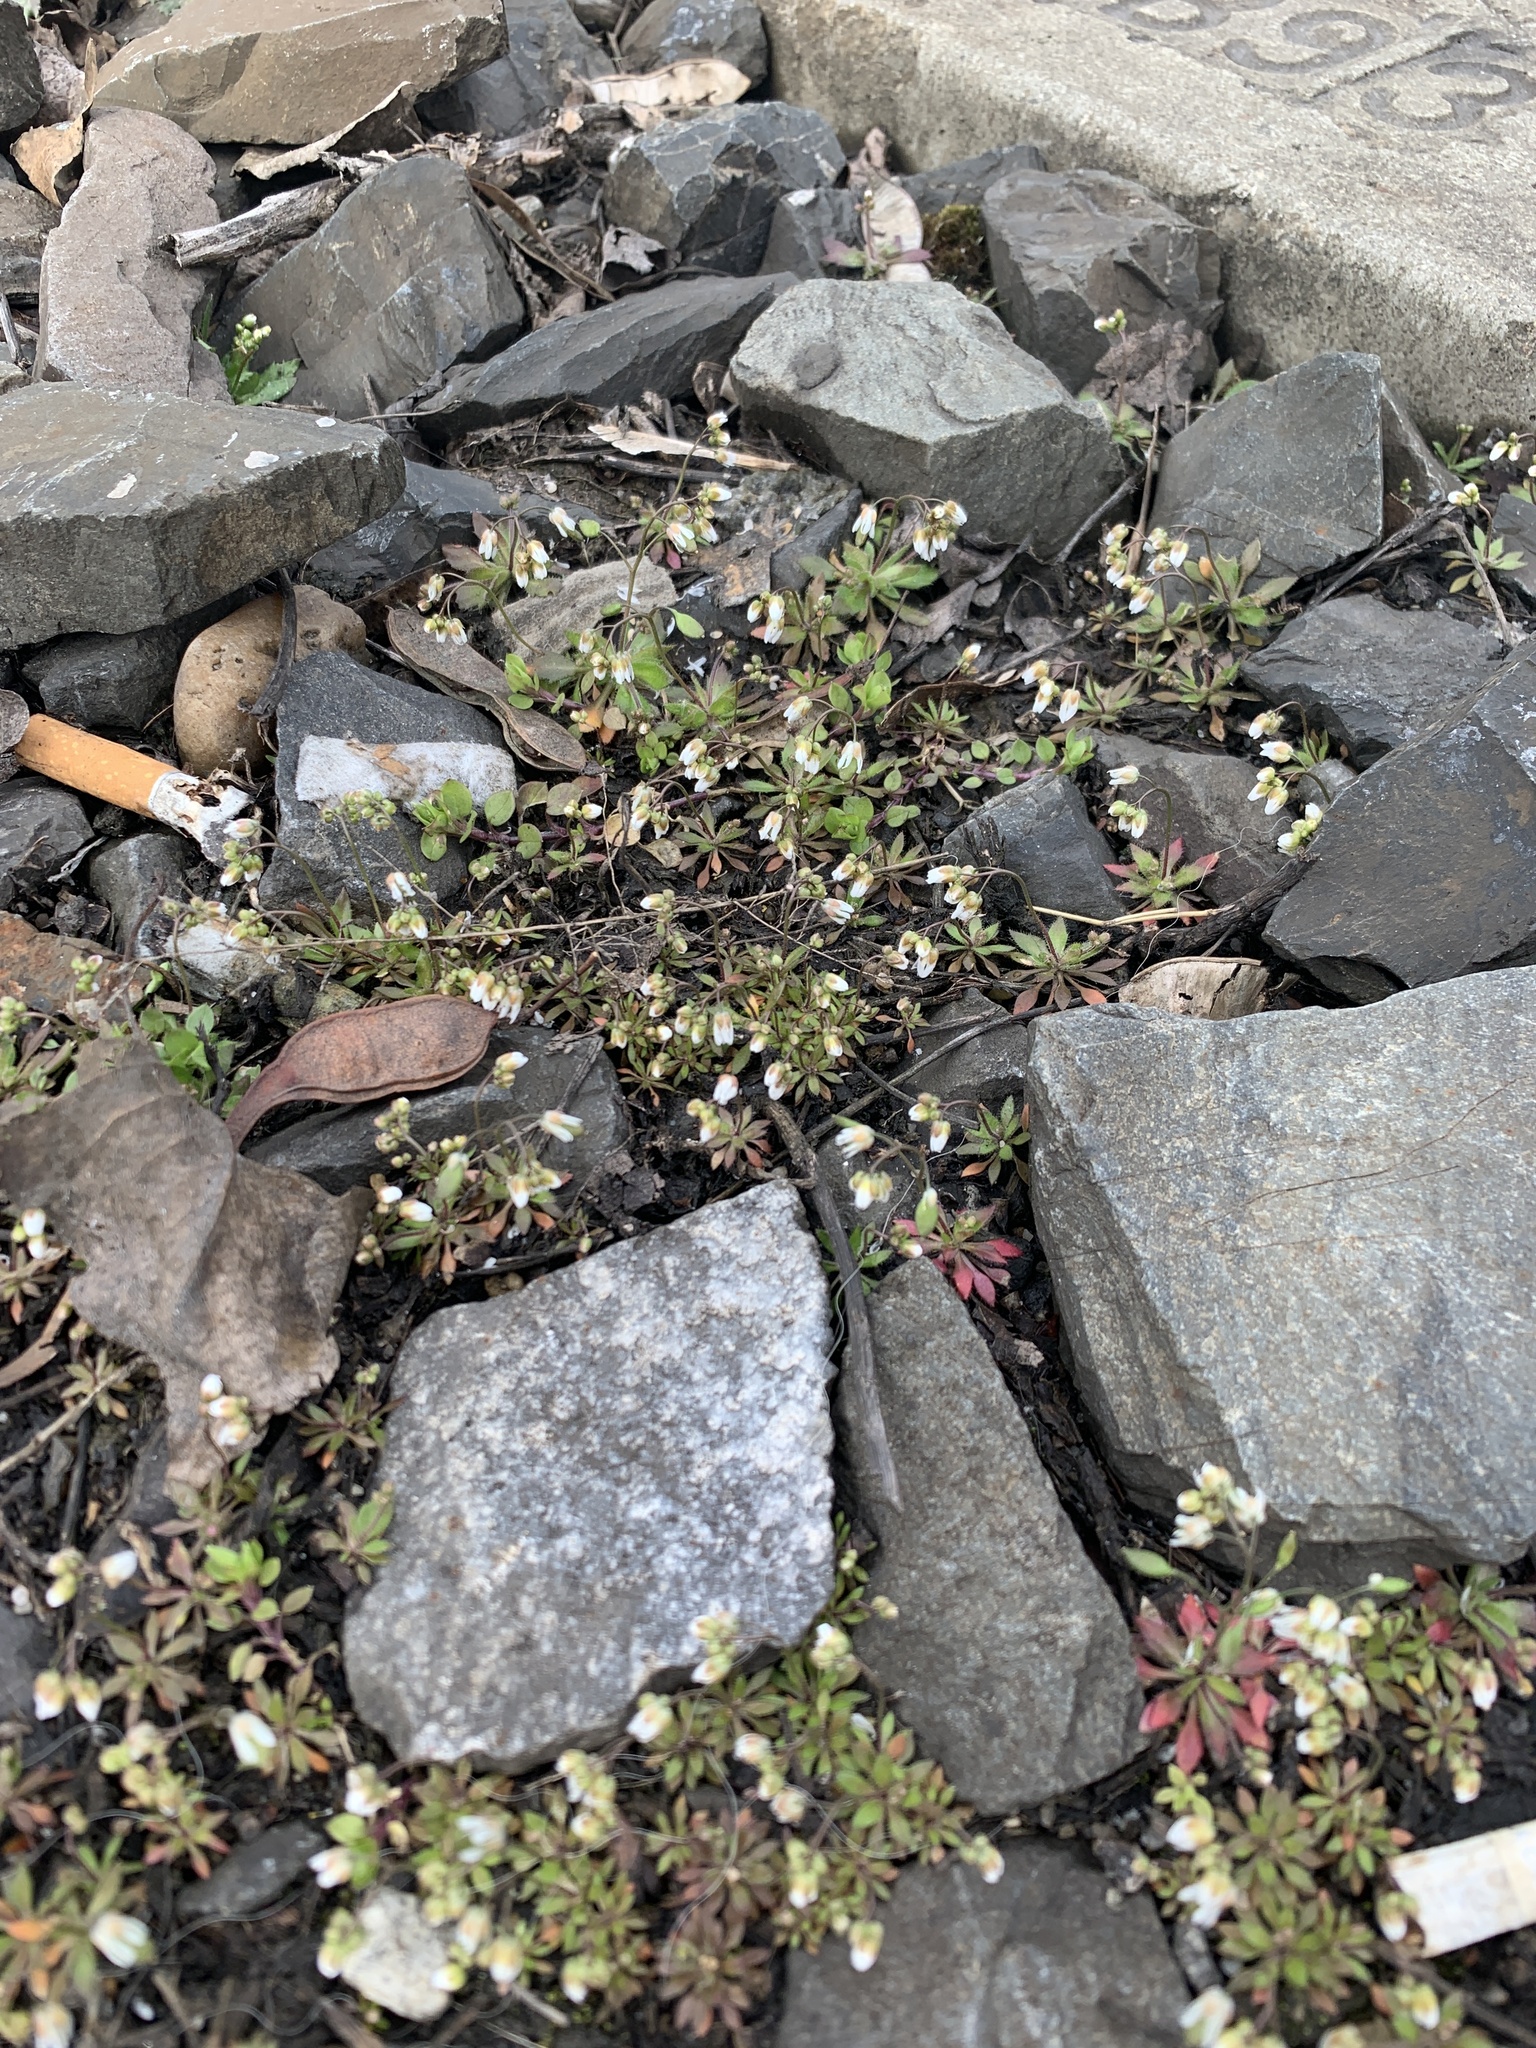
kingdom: Plantae
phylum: Tracheophyta
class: Magnoliopsida
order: Brassicales
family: Brassicaceae
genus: Draba
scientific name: Draba verna
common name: Spring draba
